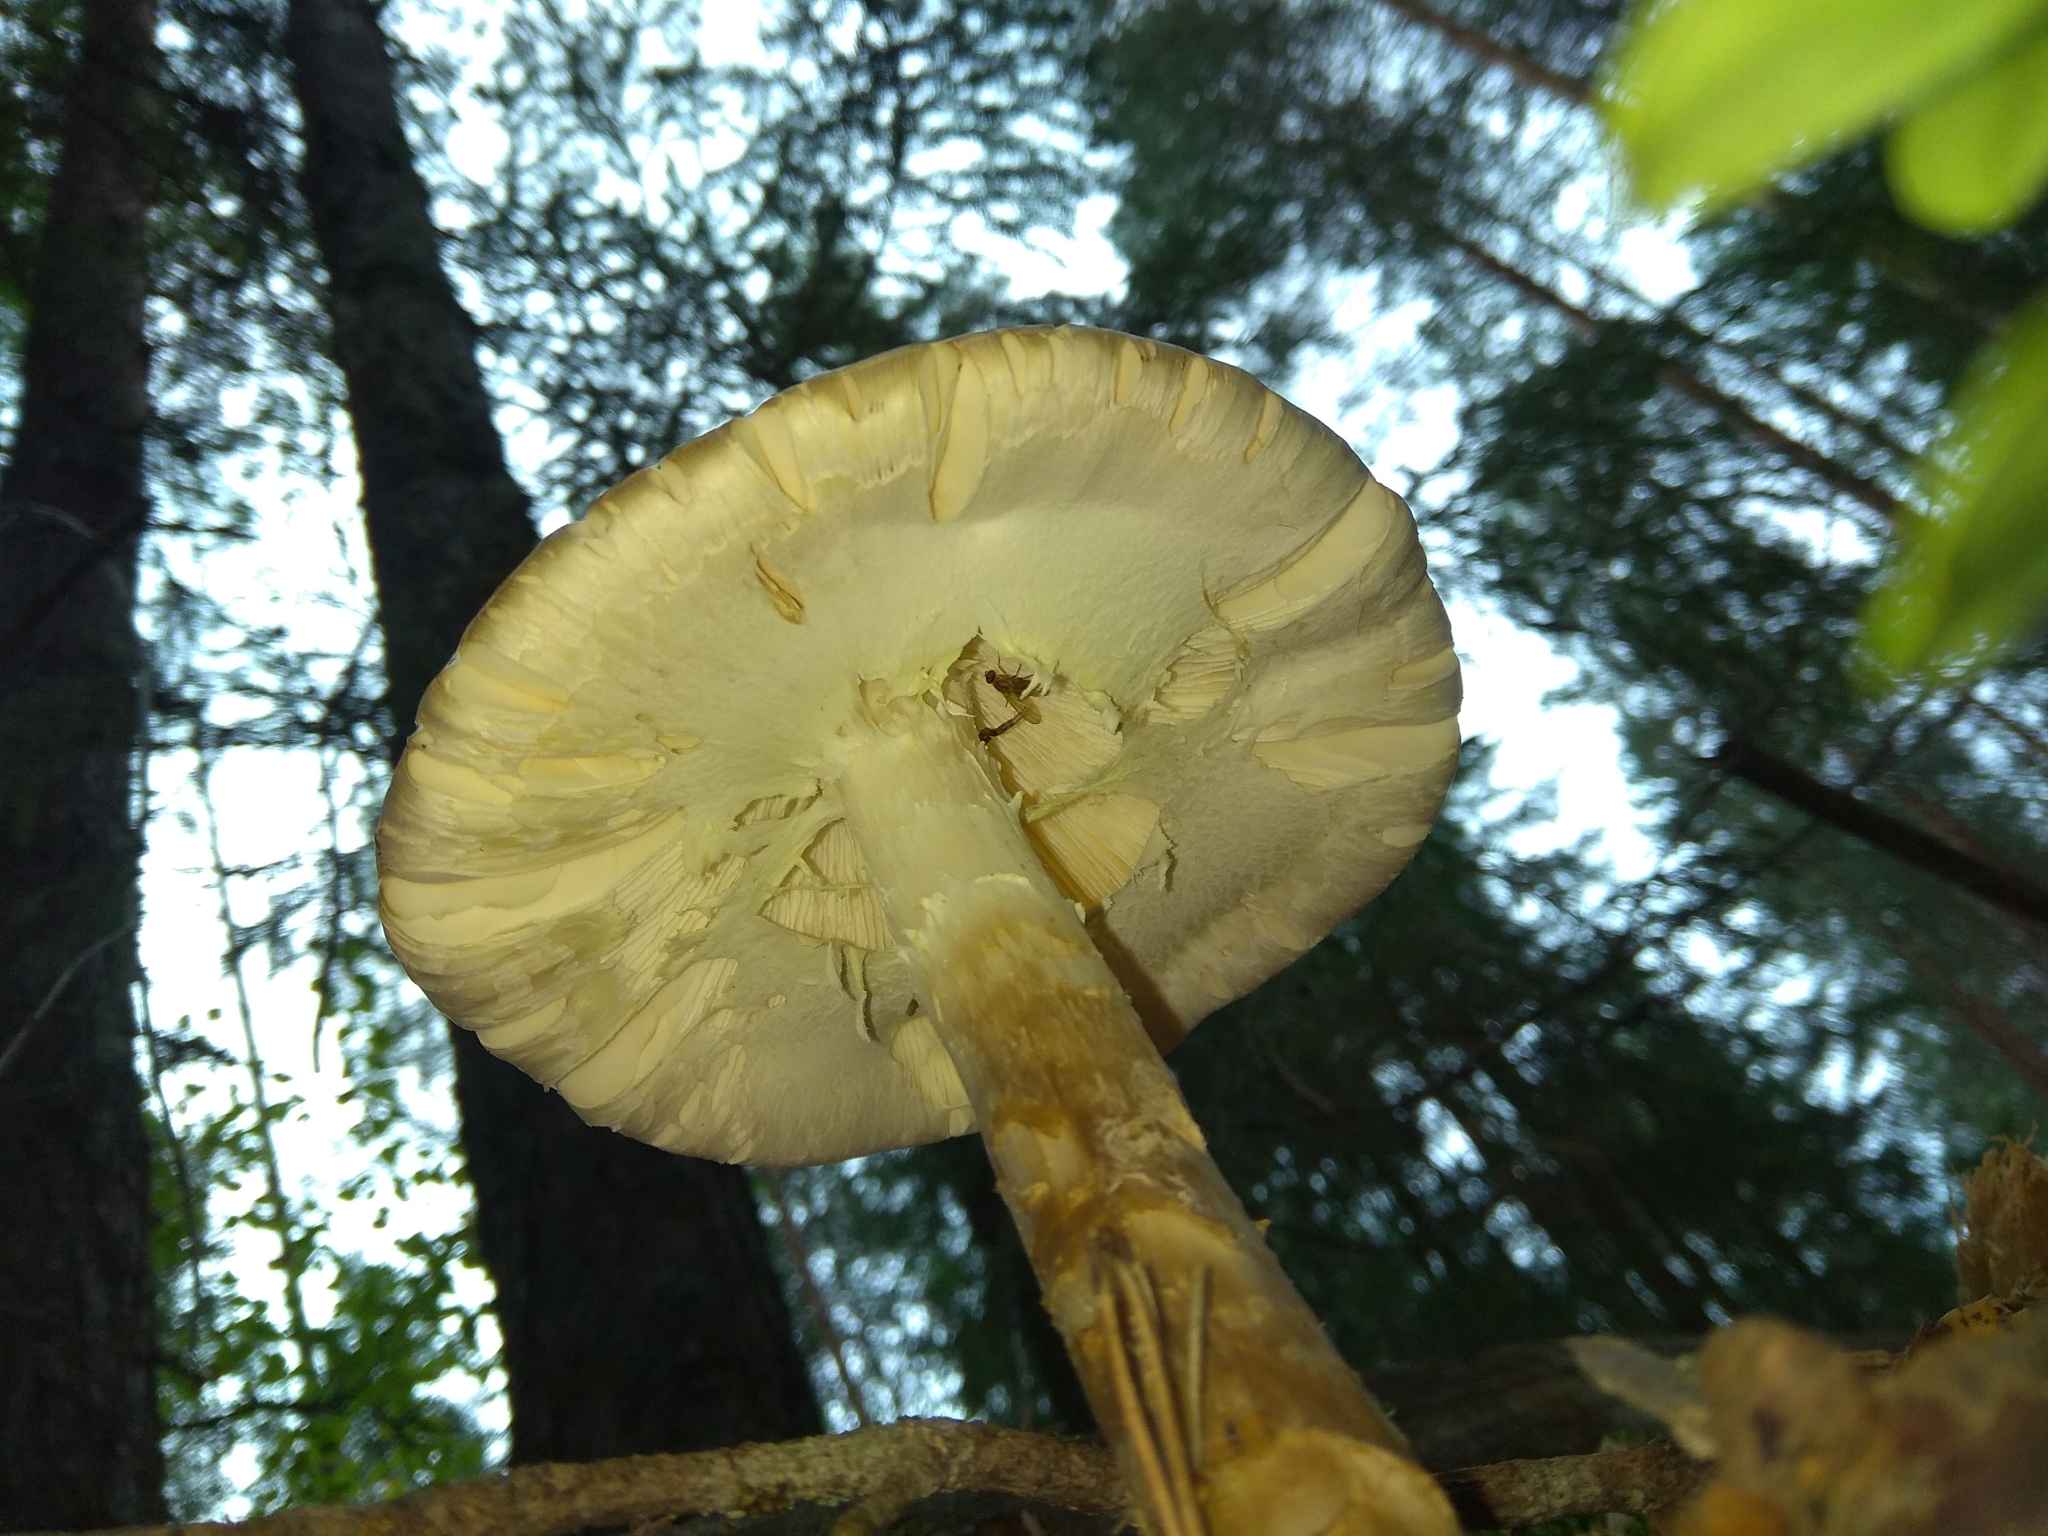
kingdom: Fungi
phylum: Basidiomycota
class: Agaricomycetes
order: Agaricales
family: Amanitaceae
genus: Amanita
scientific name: Amanita virosa
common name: Destroying angel
